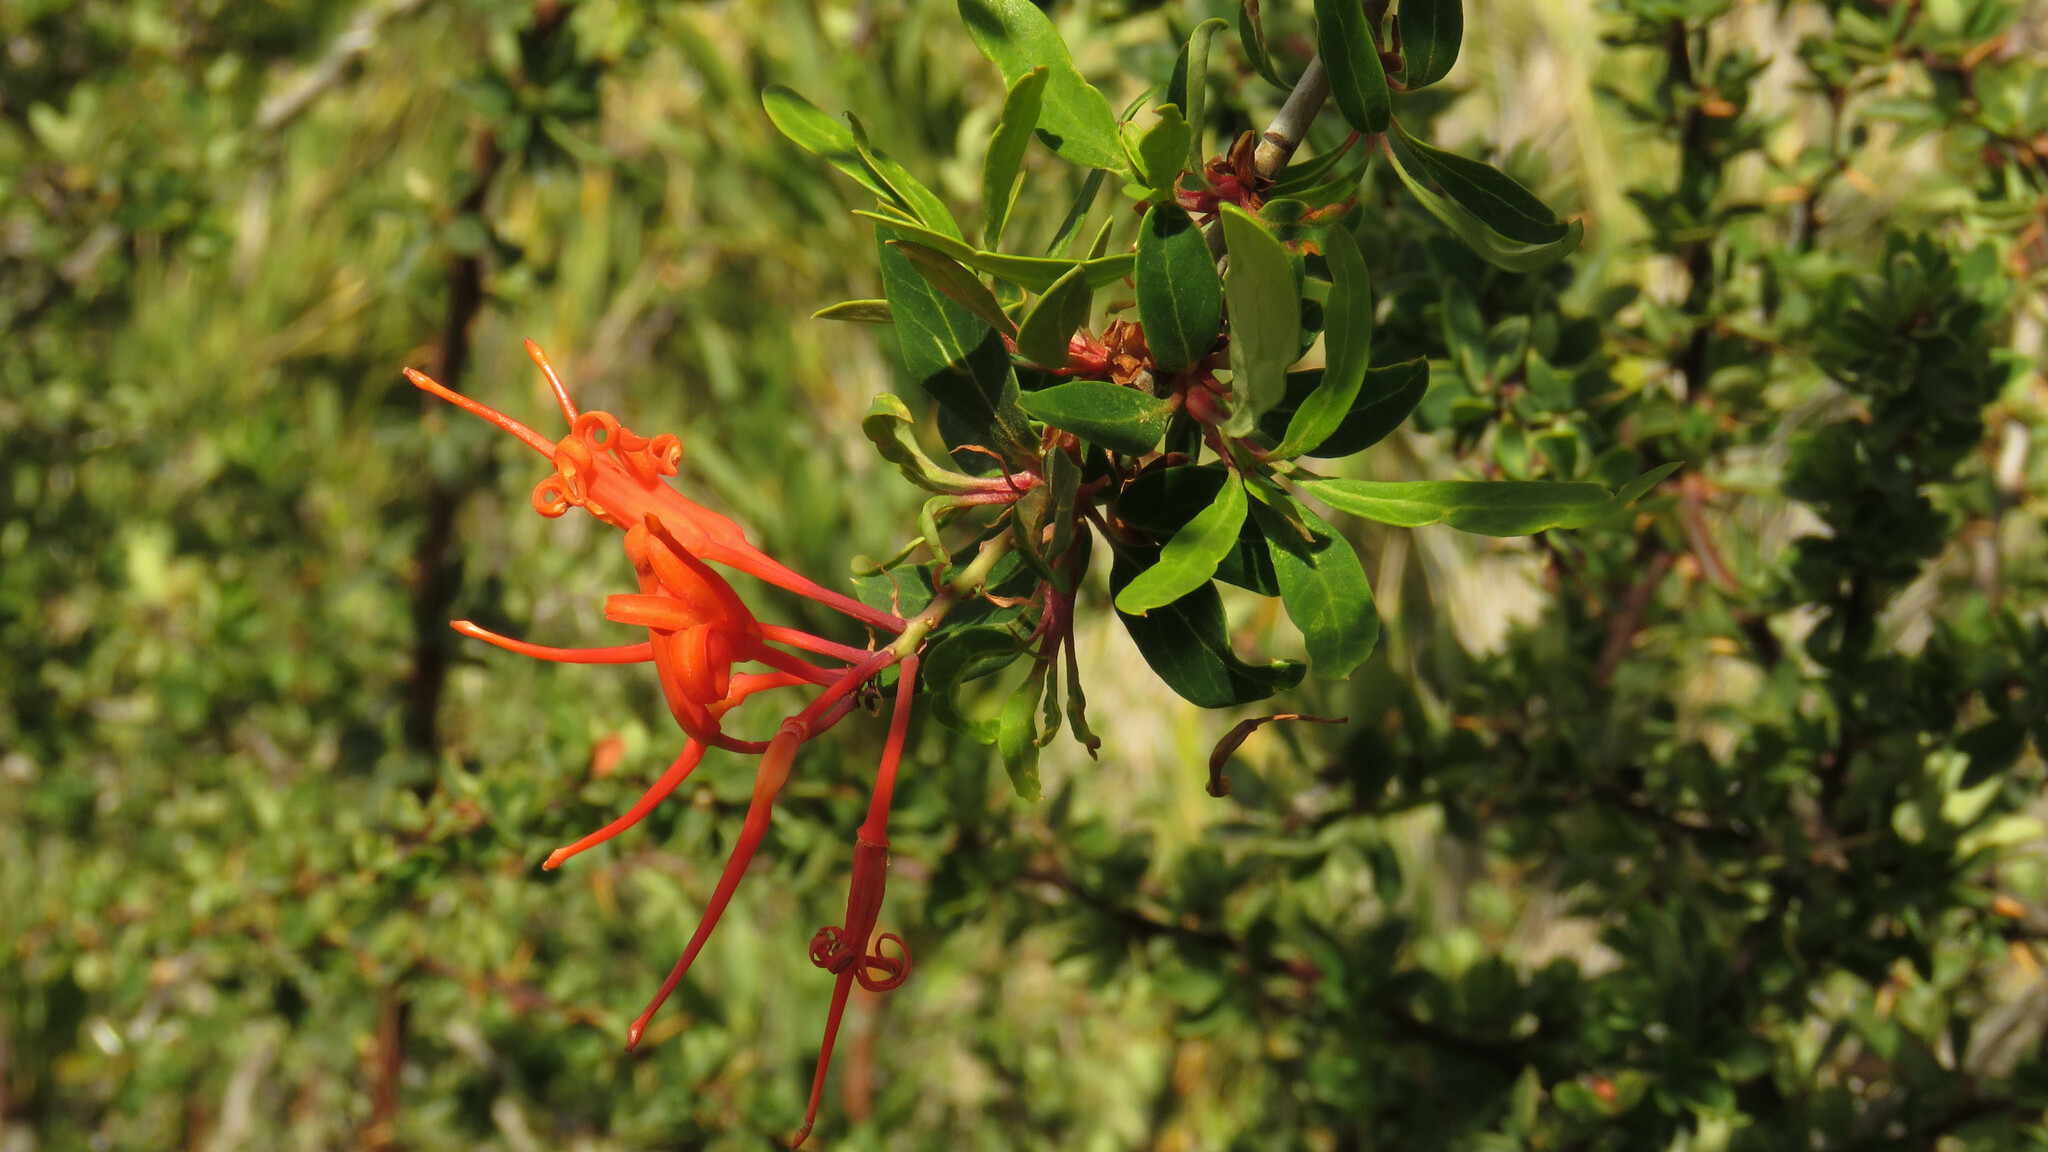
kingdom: Plantae
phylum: Tracheophyta
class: Magnoliopsida
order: Proteales
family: Proteaceae
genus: Embothrium
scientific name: Embothrium coccineum
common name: Chilean firebush
